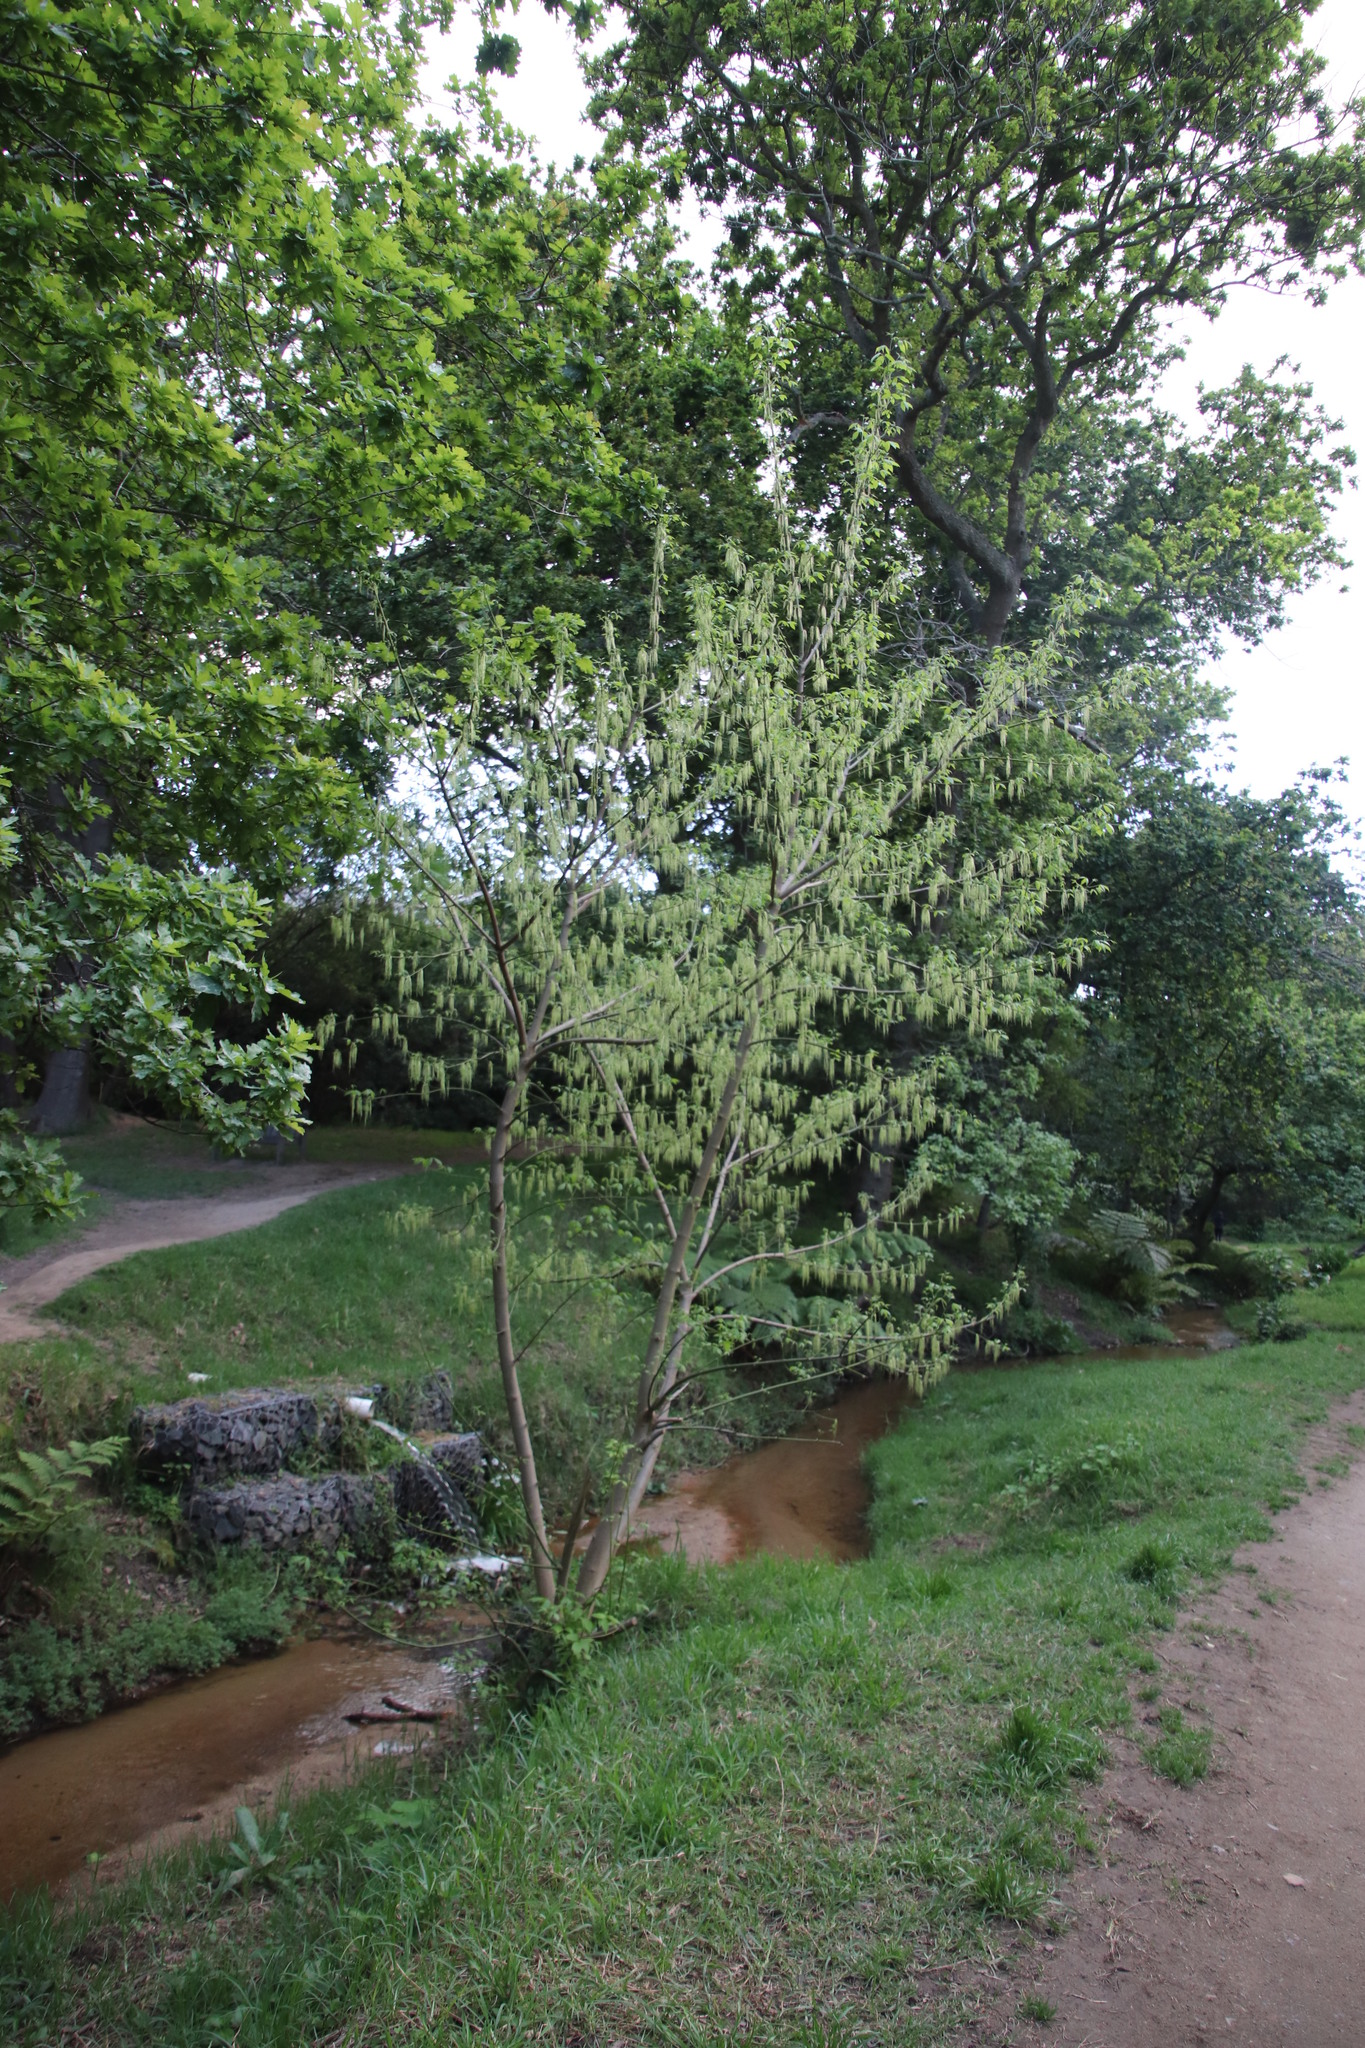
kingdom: Plantae
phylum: Tracheophyta
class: Magnoliopsida
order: Sapindales
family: Sapindaceae
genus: Acer
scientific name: Acer negundo
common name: Ashleaf maple
